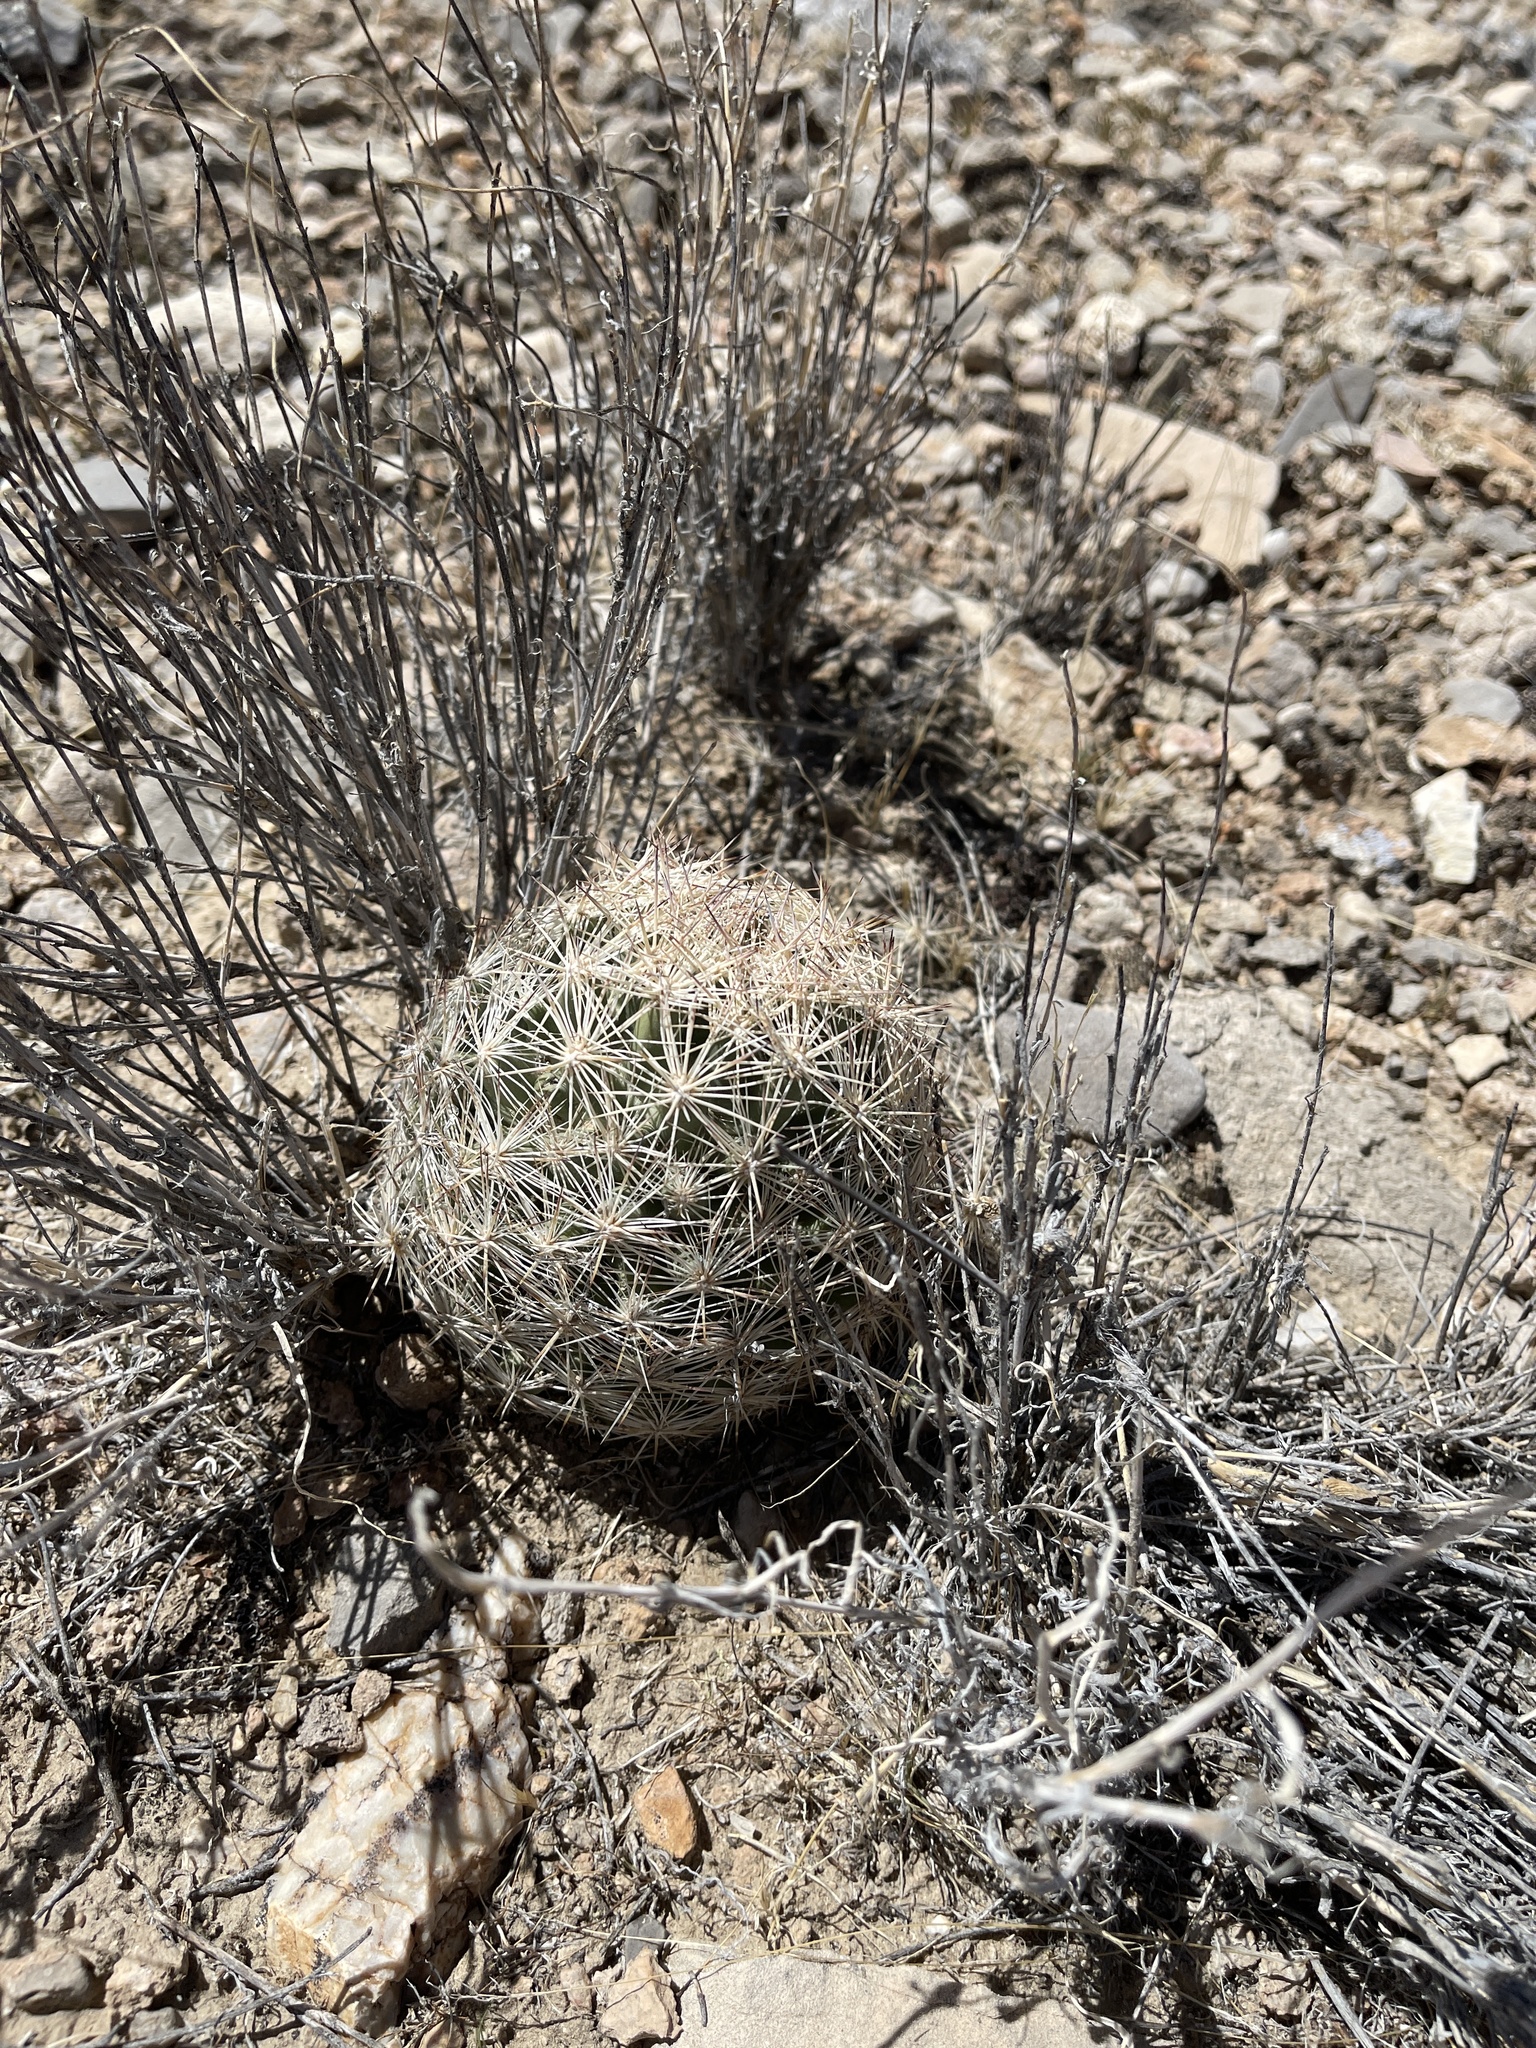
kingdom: Plantae
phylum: Tracheophyta
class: Magnoliopsida
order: Caryophyllales
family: Cactaceae
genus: Pelecyphora
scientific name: Pelecyphora dasyacantha
